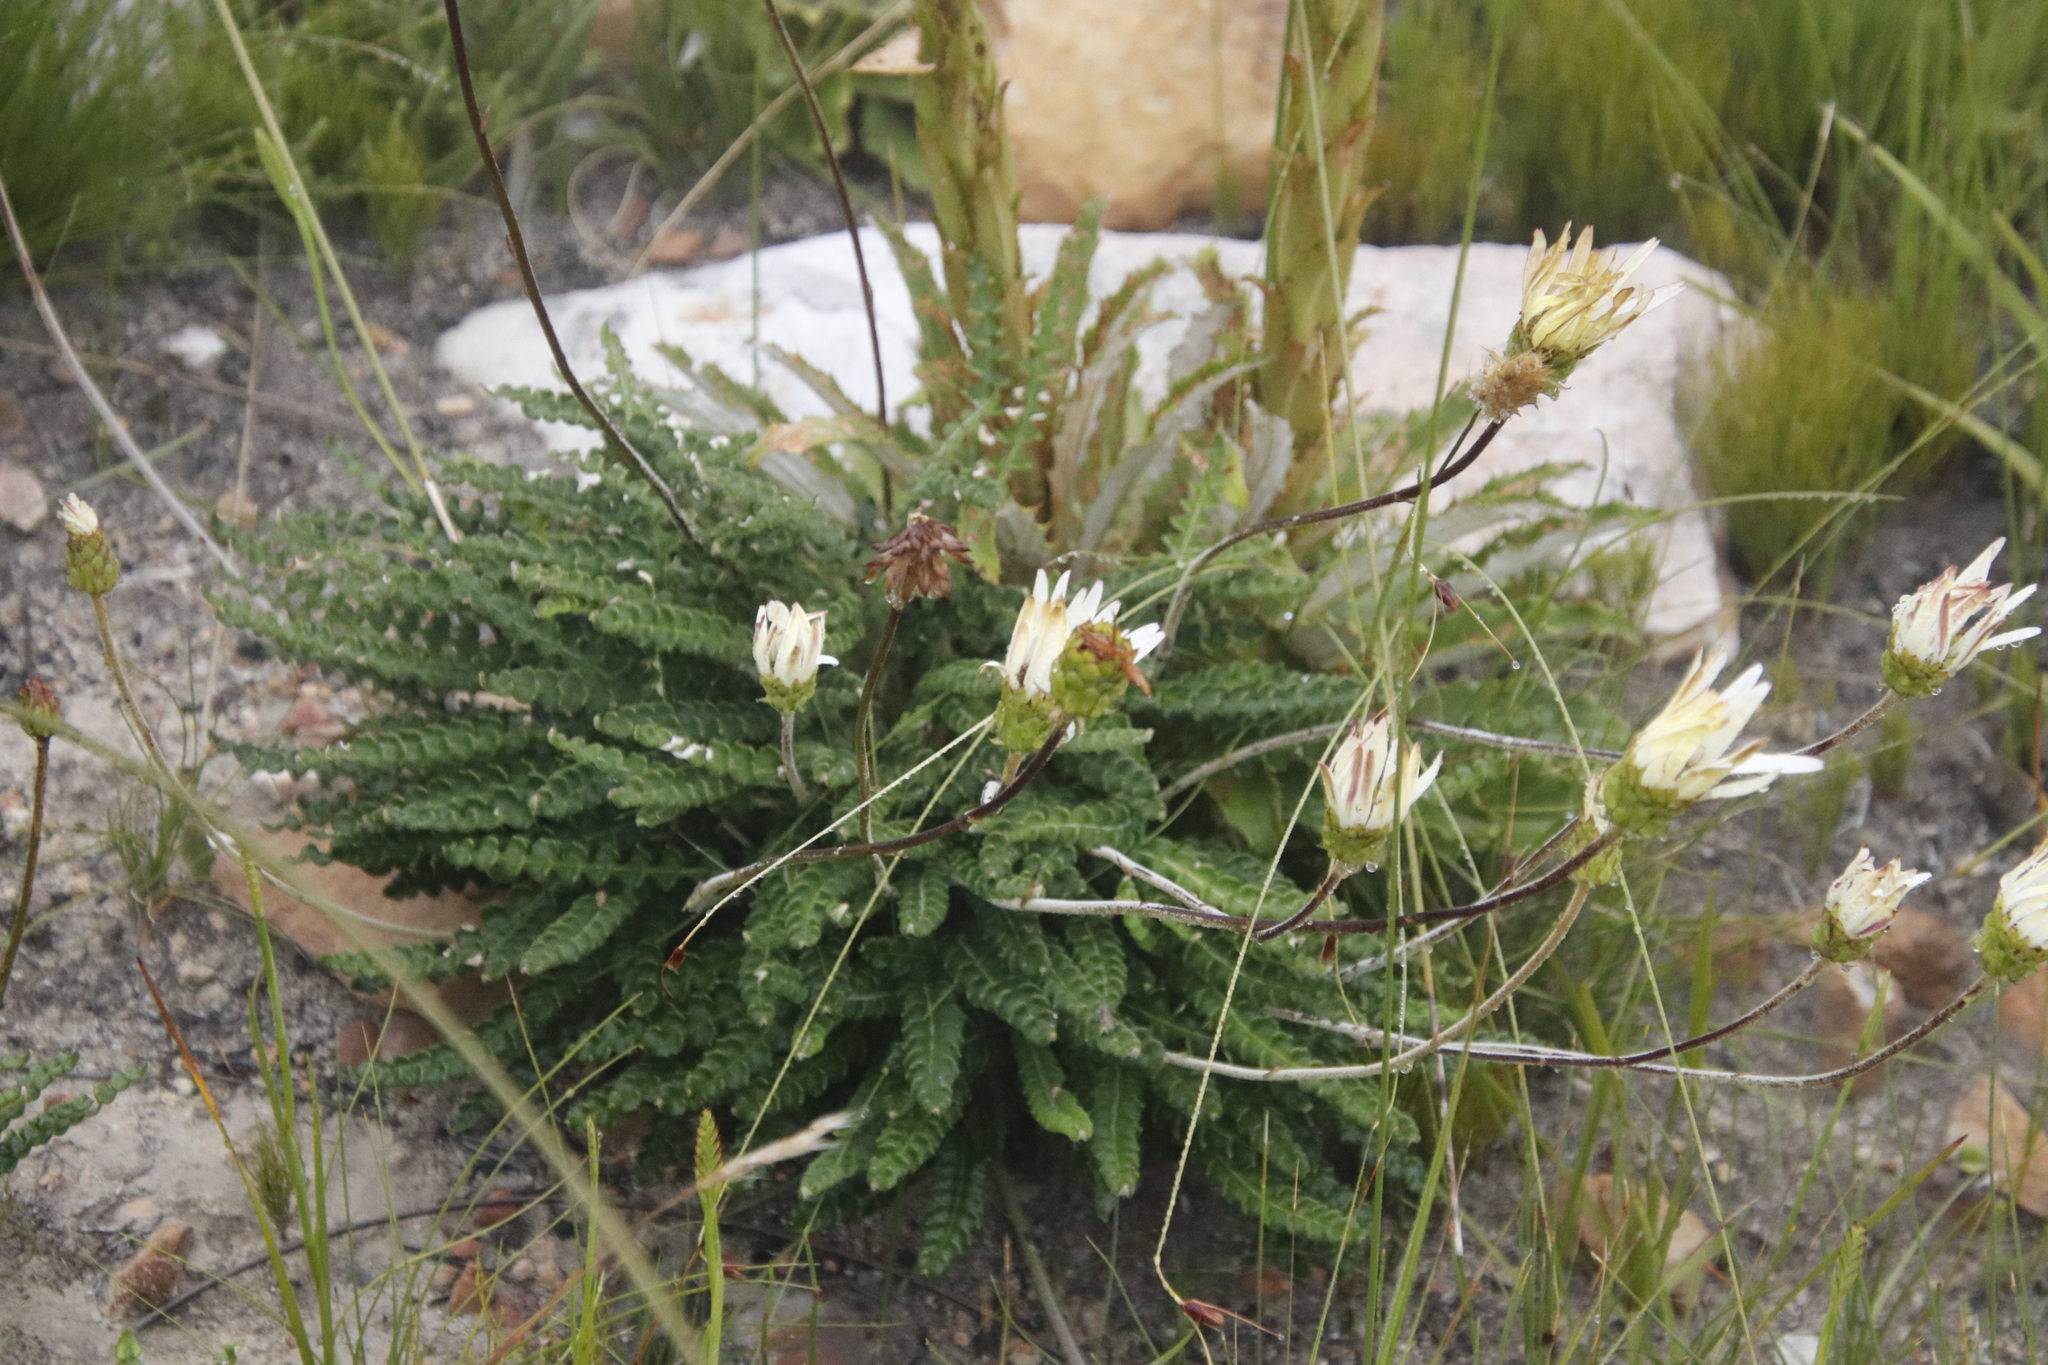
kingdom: Plantae
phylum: Tracheophyta
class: Magnoliopsida
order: Asterales
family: Asteraceae
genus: Gerbera
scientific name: Gerbera linnaei
